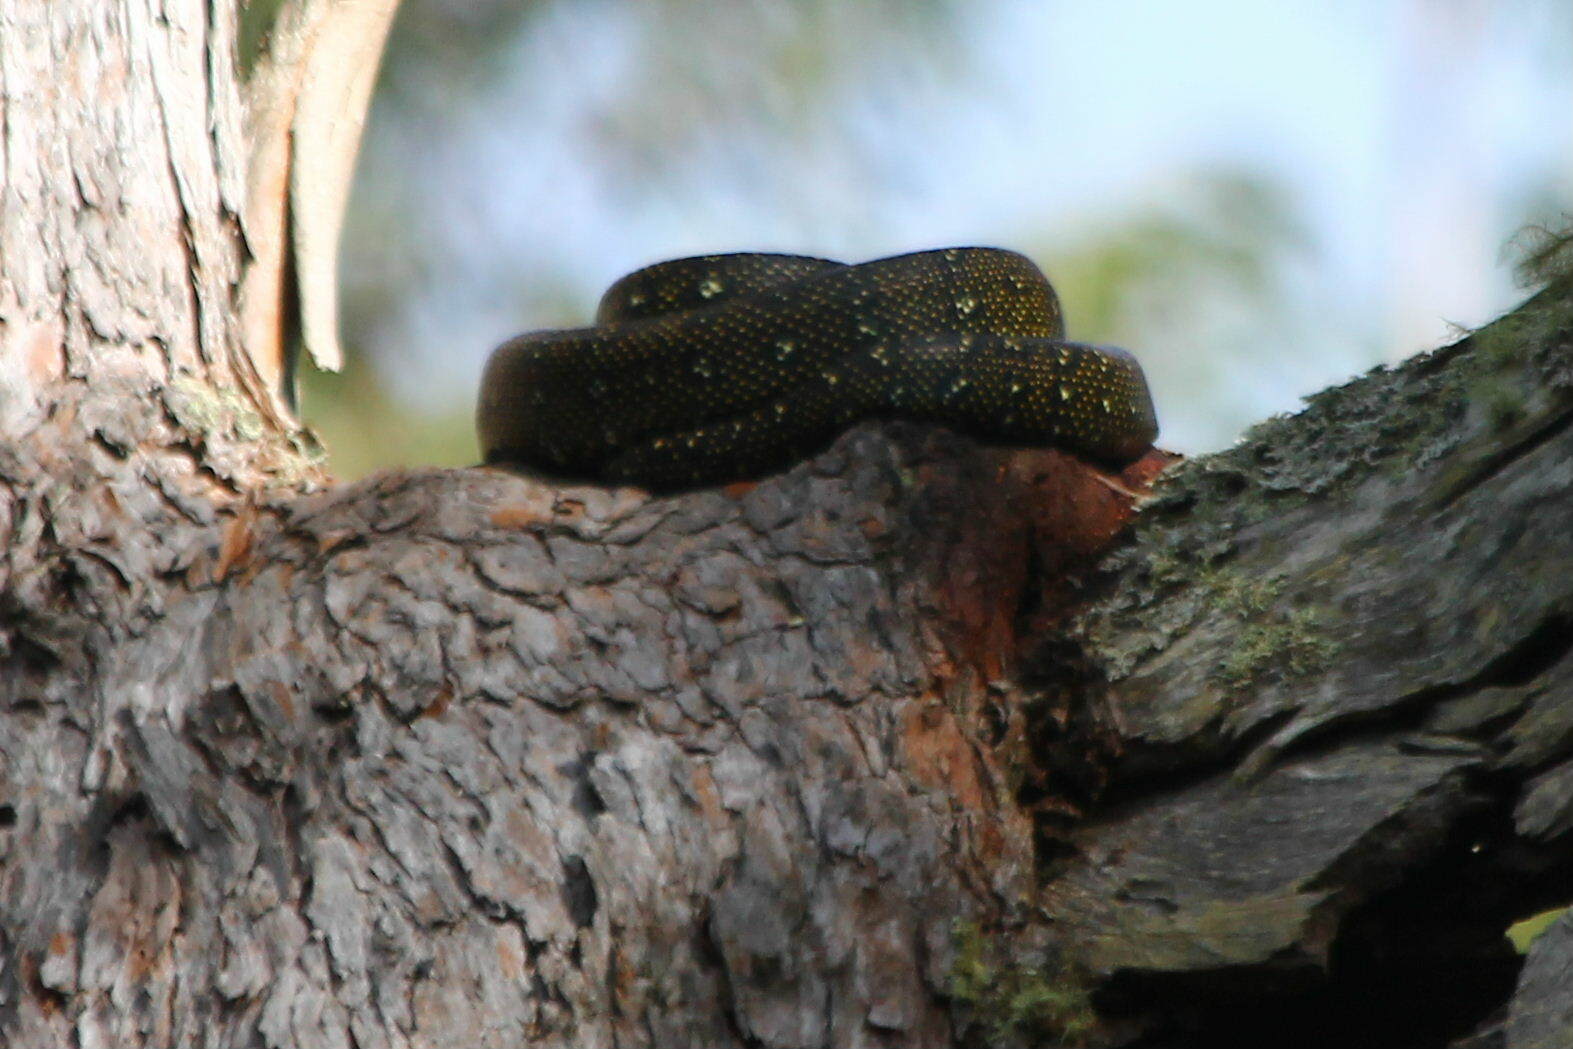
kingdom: Animalia
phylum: Chordata
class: Squamata
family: Pythonidae
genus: Morelia
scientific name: Morelia spilota
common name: Carpet python
